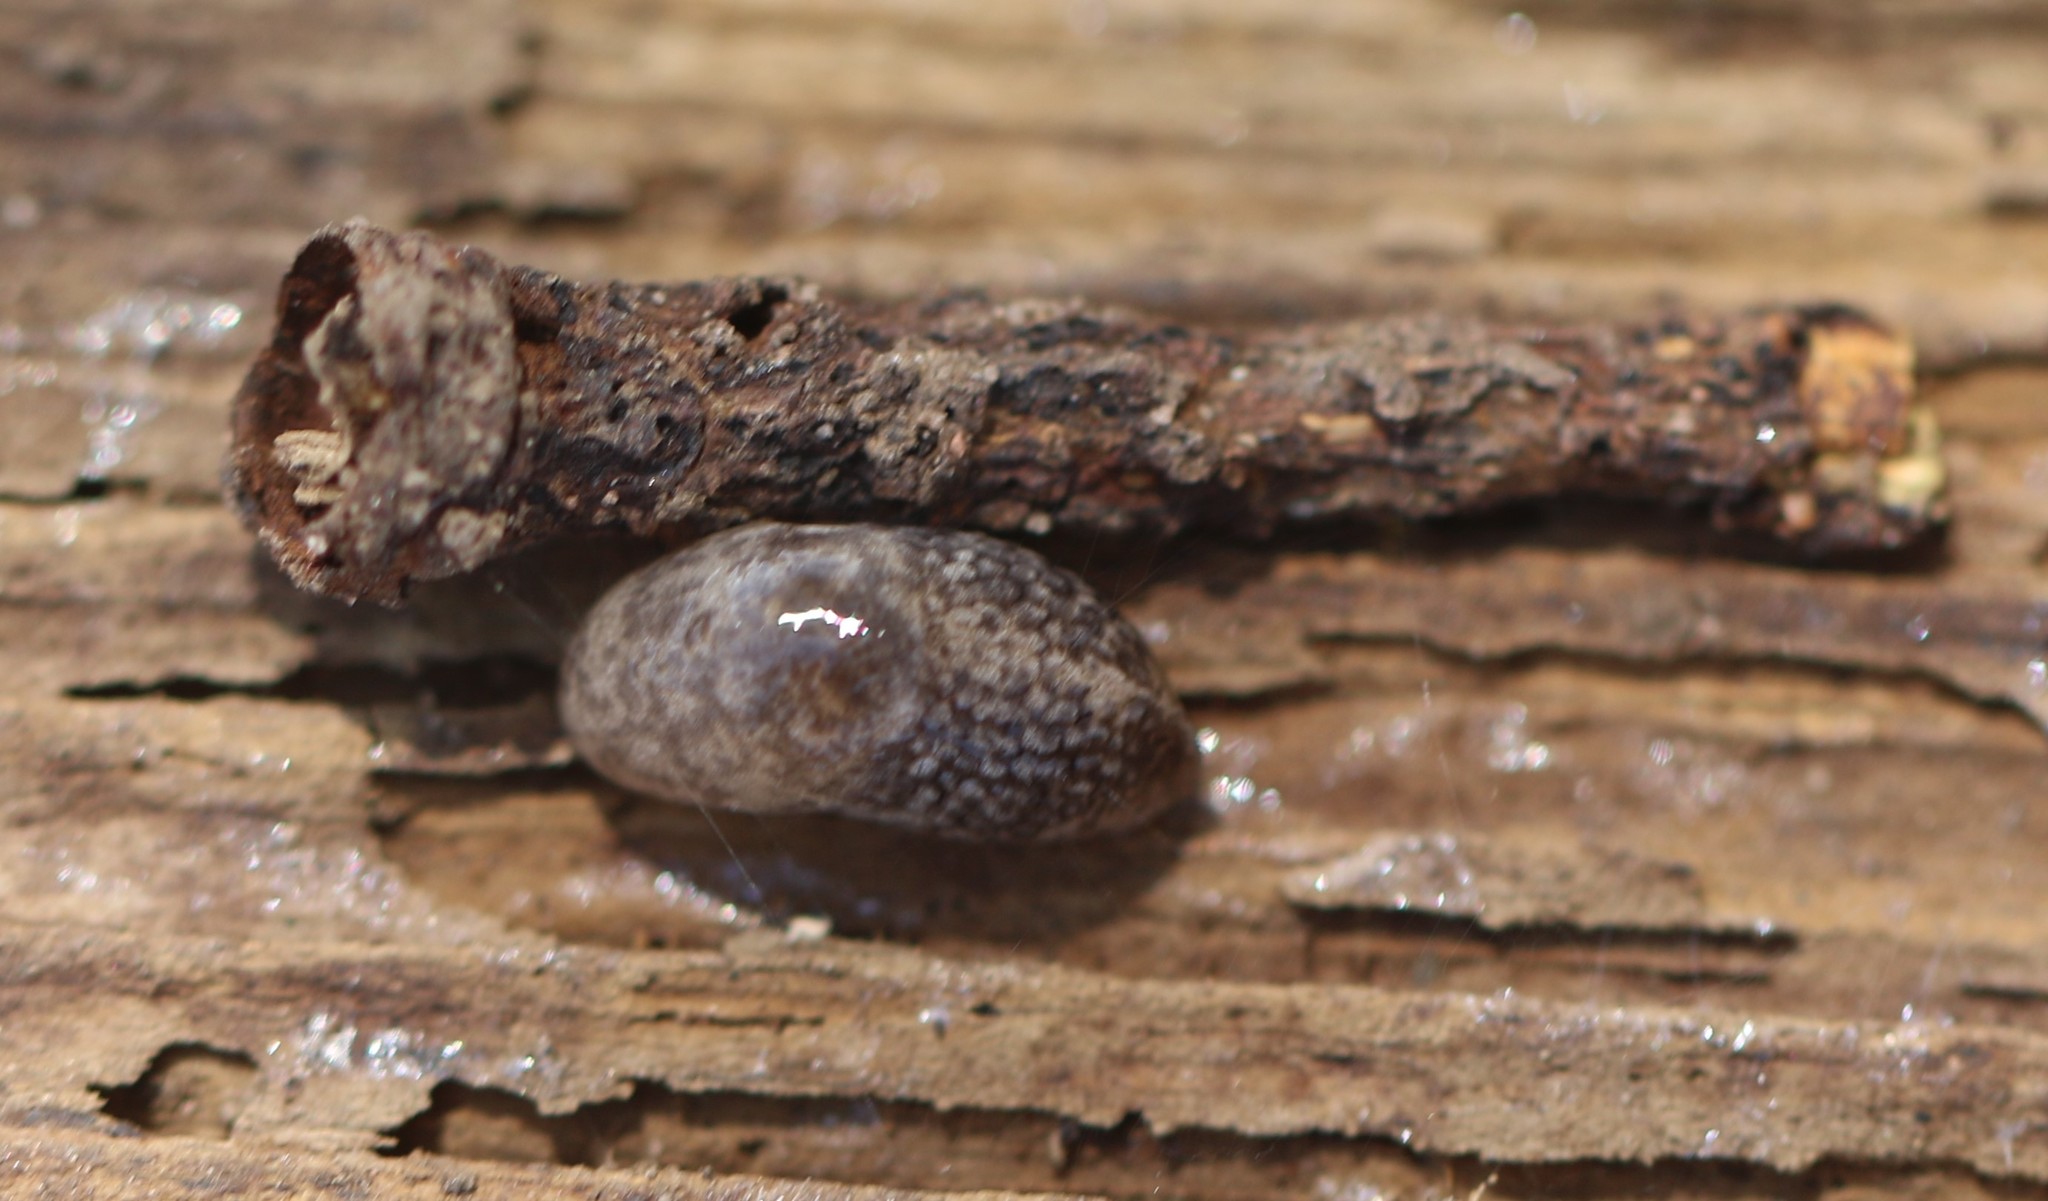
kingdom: Animalia
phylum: Mollusca
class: Gastropoda
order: Stylommatophora
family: Agriolimacidae
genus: Deroceras
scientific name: Deroceras reticulatum
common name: Gray field slug
